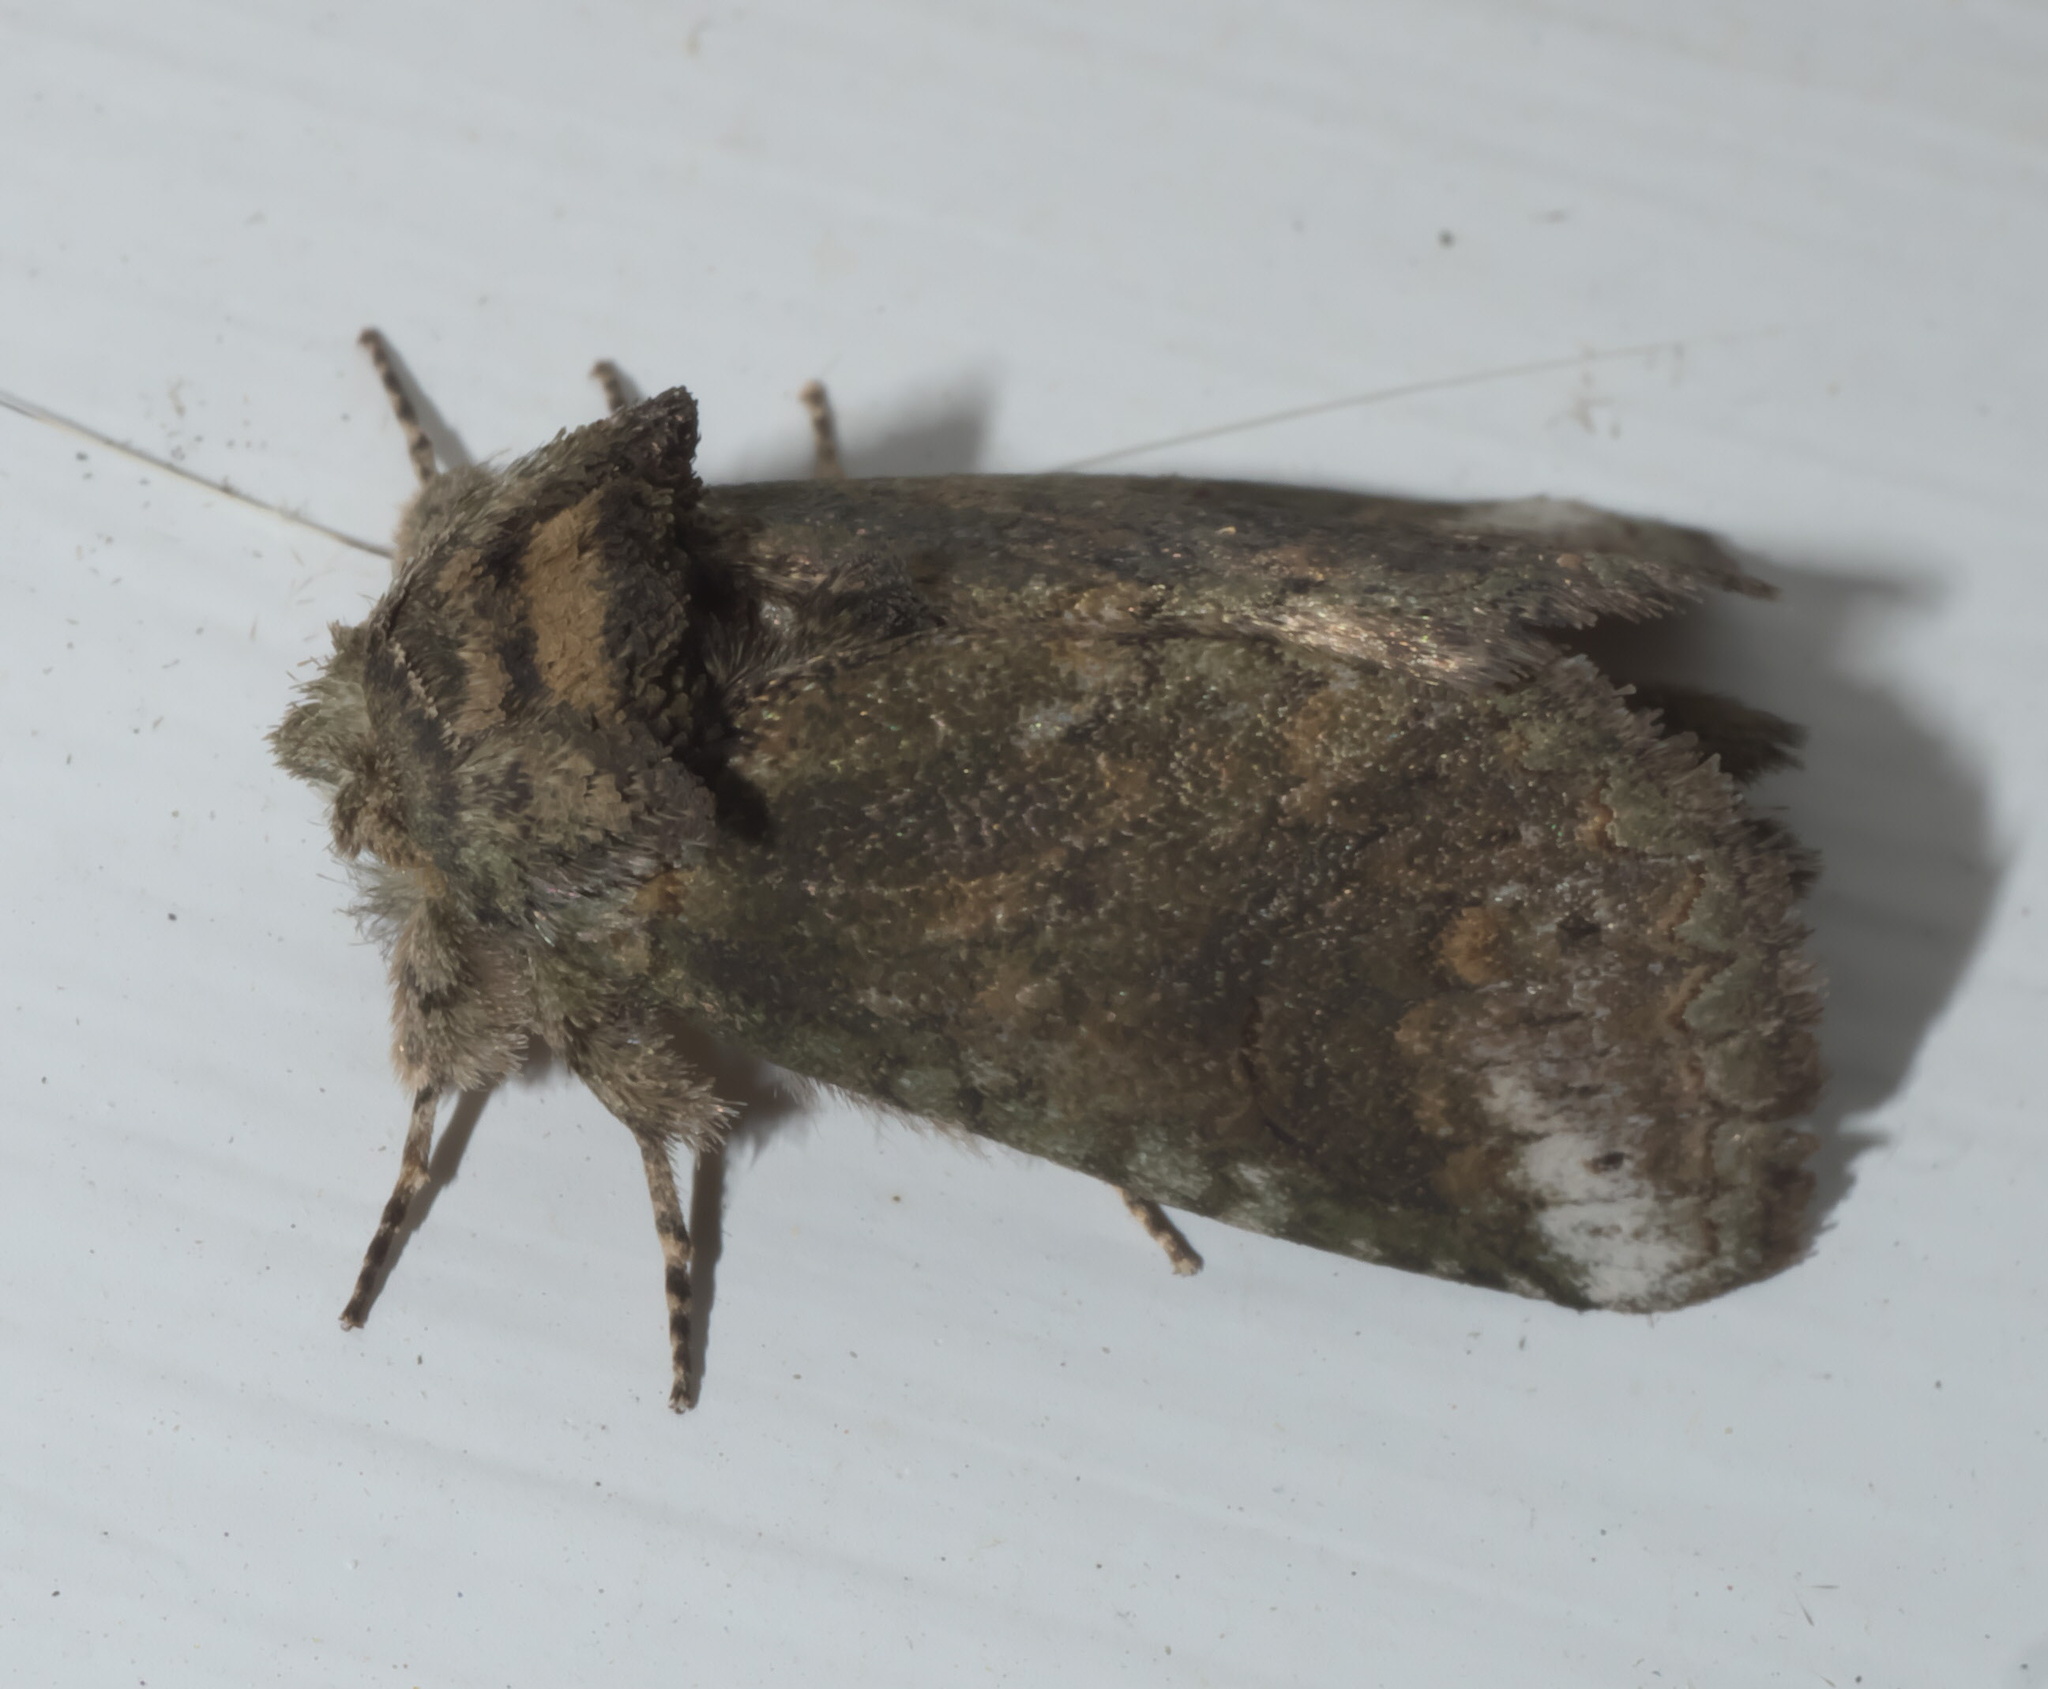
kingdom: Animalia
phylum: Arthropoda
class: Insecta
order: Lepidoptera
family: Notodontidae
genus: Rifargia
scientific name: Rifargia
